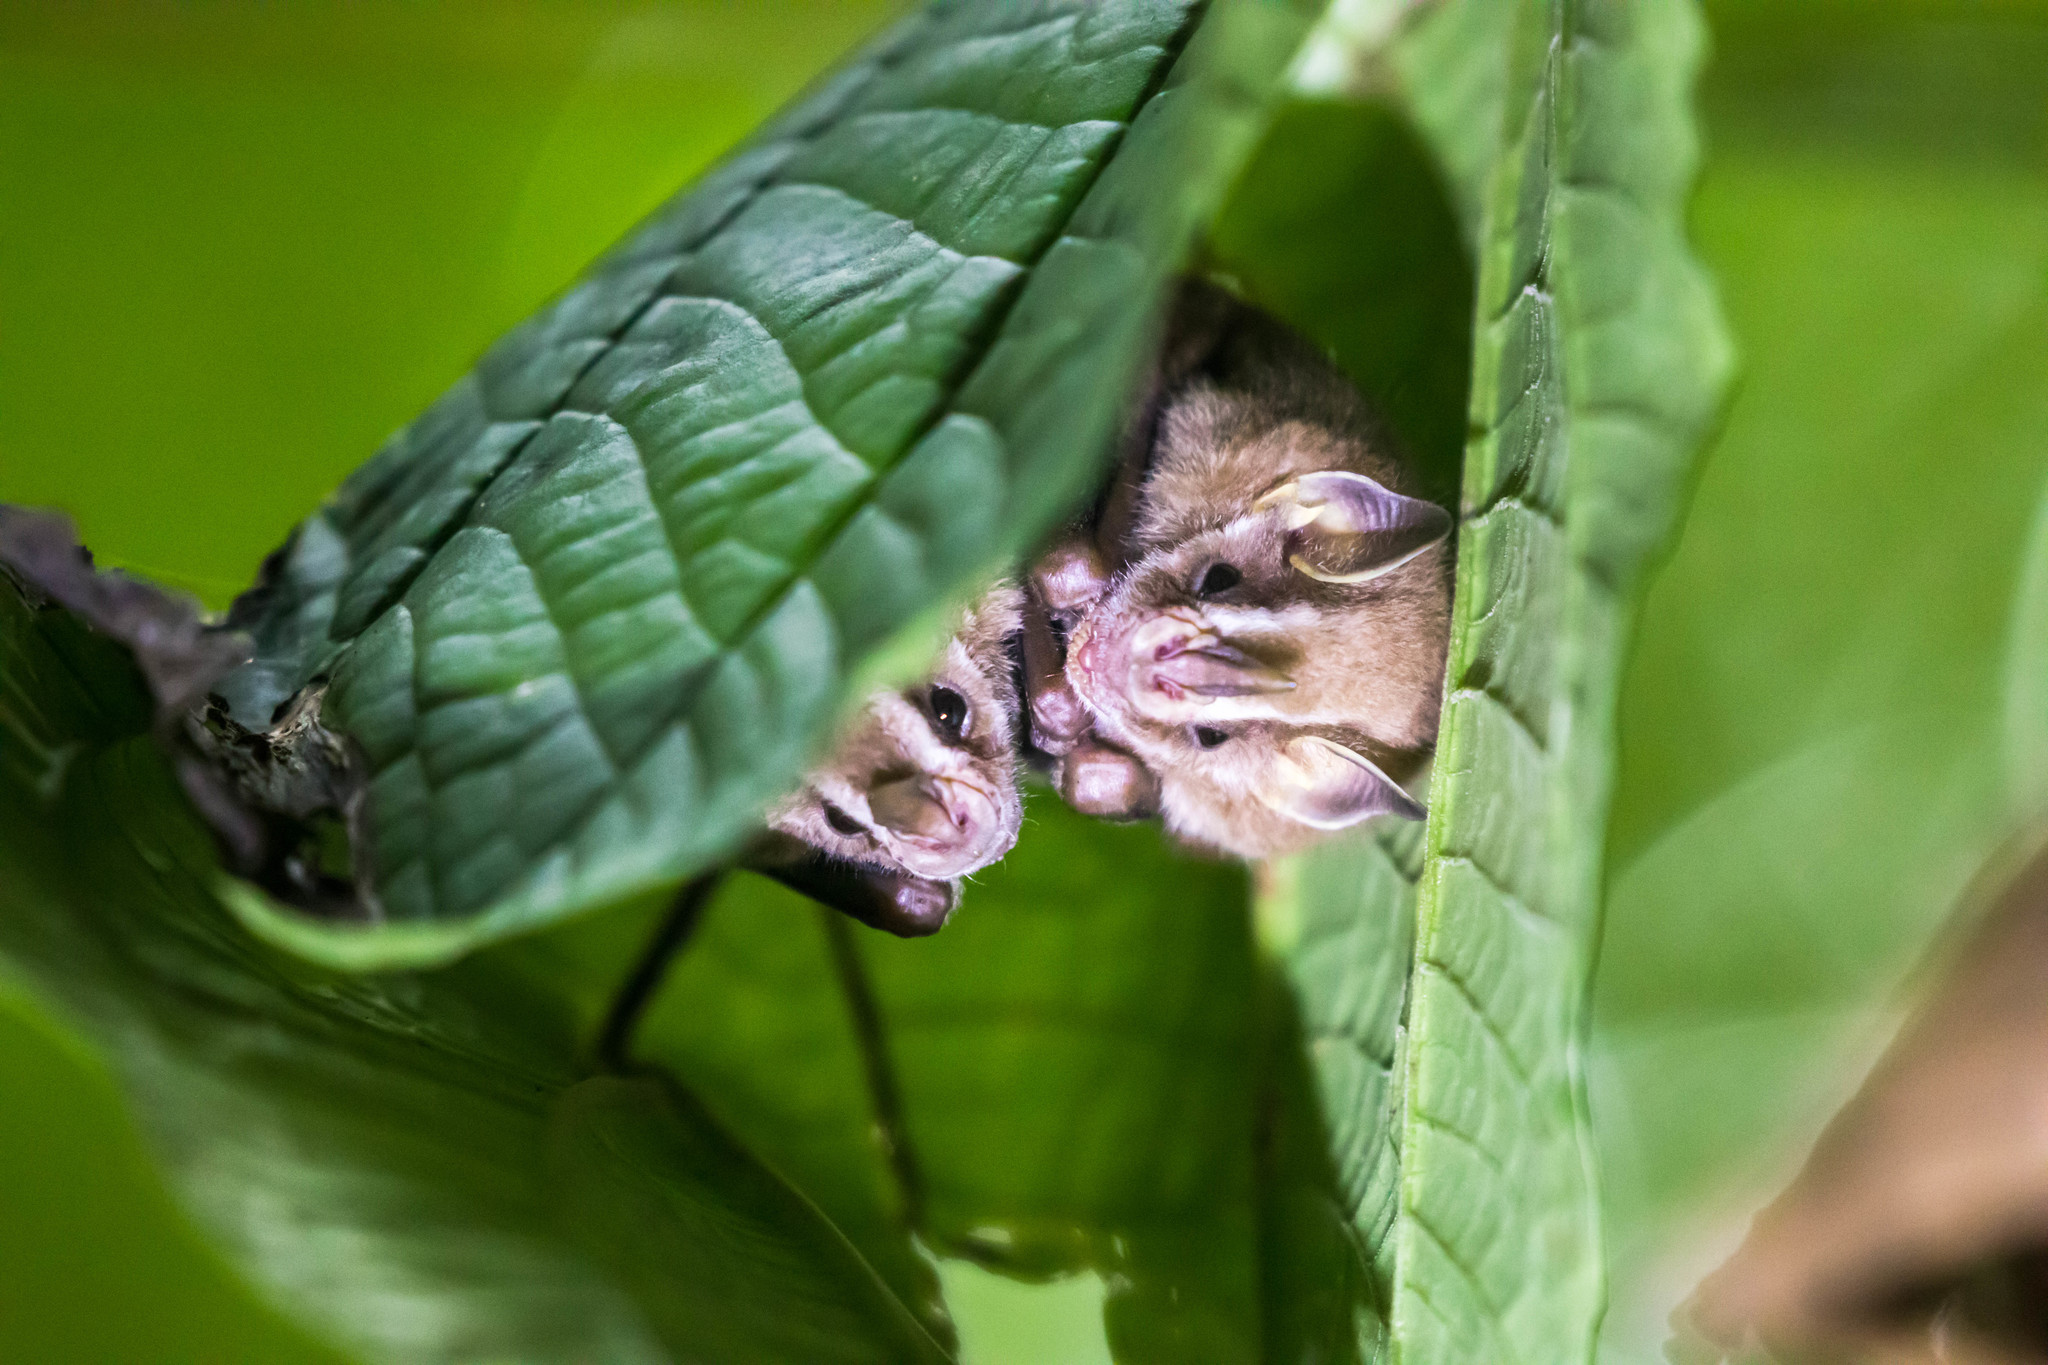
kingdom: Animalia
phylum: Chordata
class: Mammalia
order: Chiroptera
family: Phyllostomidae
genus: Vampyressa
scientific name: Vampyressa thyone
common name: Northern little yellow-eared bat
